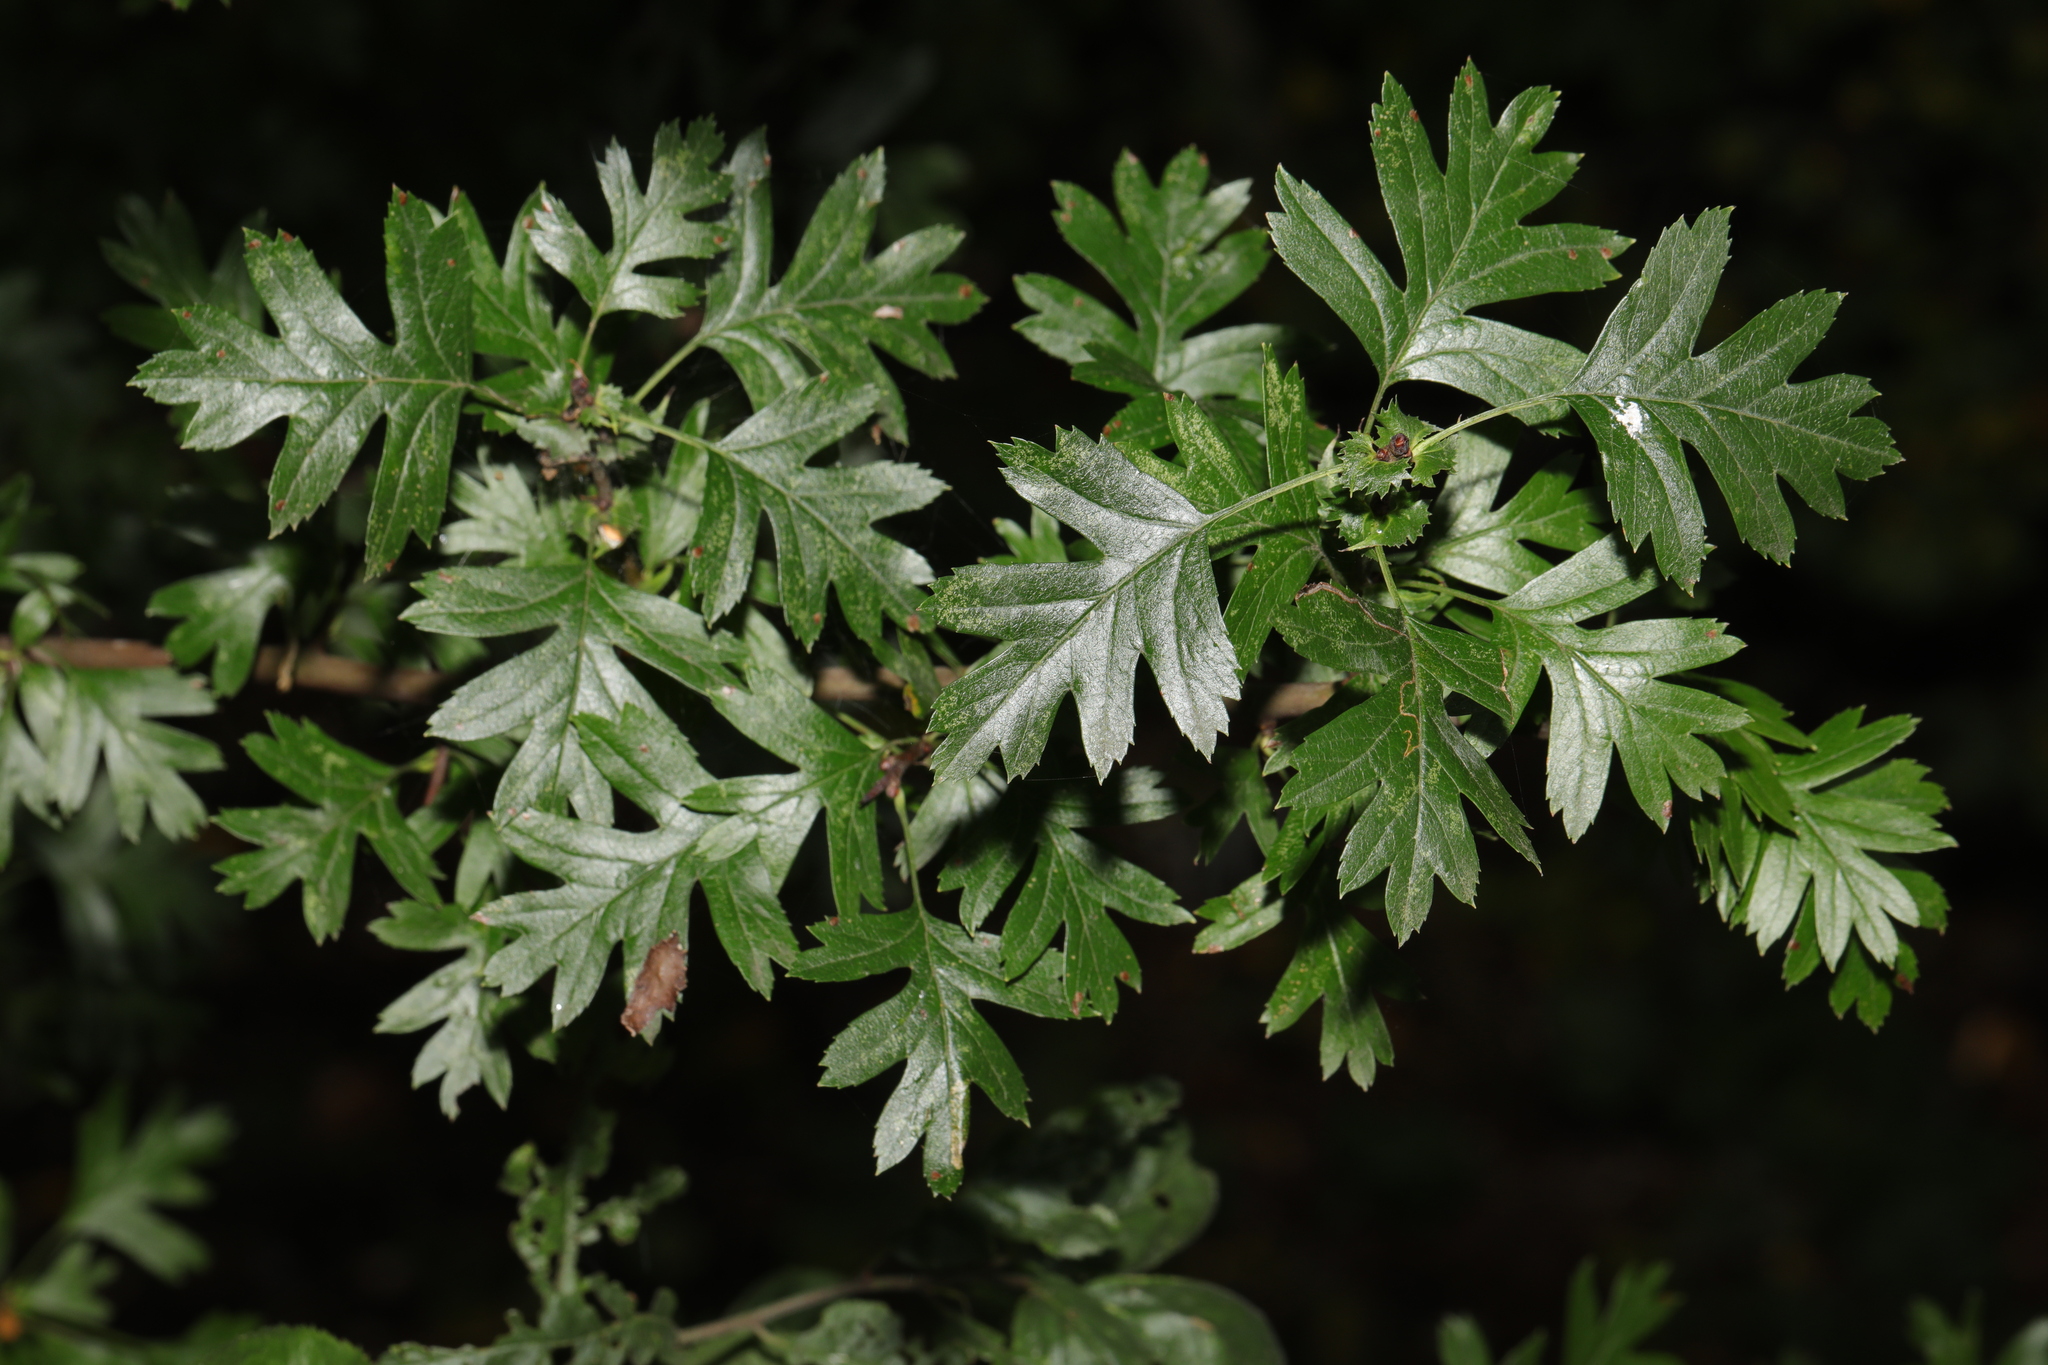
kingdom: Plantae
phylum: Tracheophyta
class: Magnoliopsida
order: Rosales
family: Rosaceae
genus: Crataegus
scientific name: Crataegus monogyna
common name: Hawthorn
